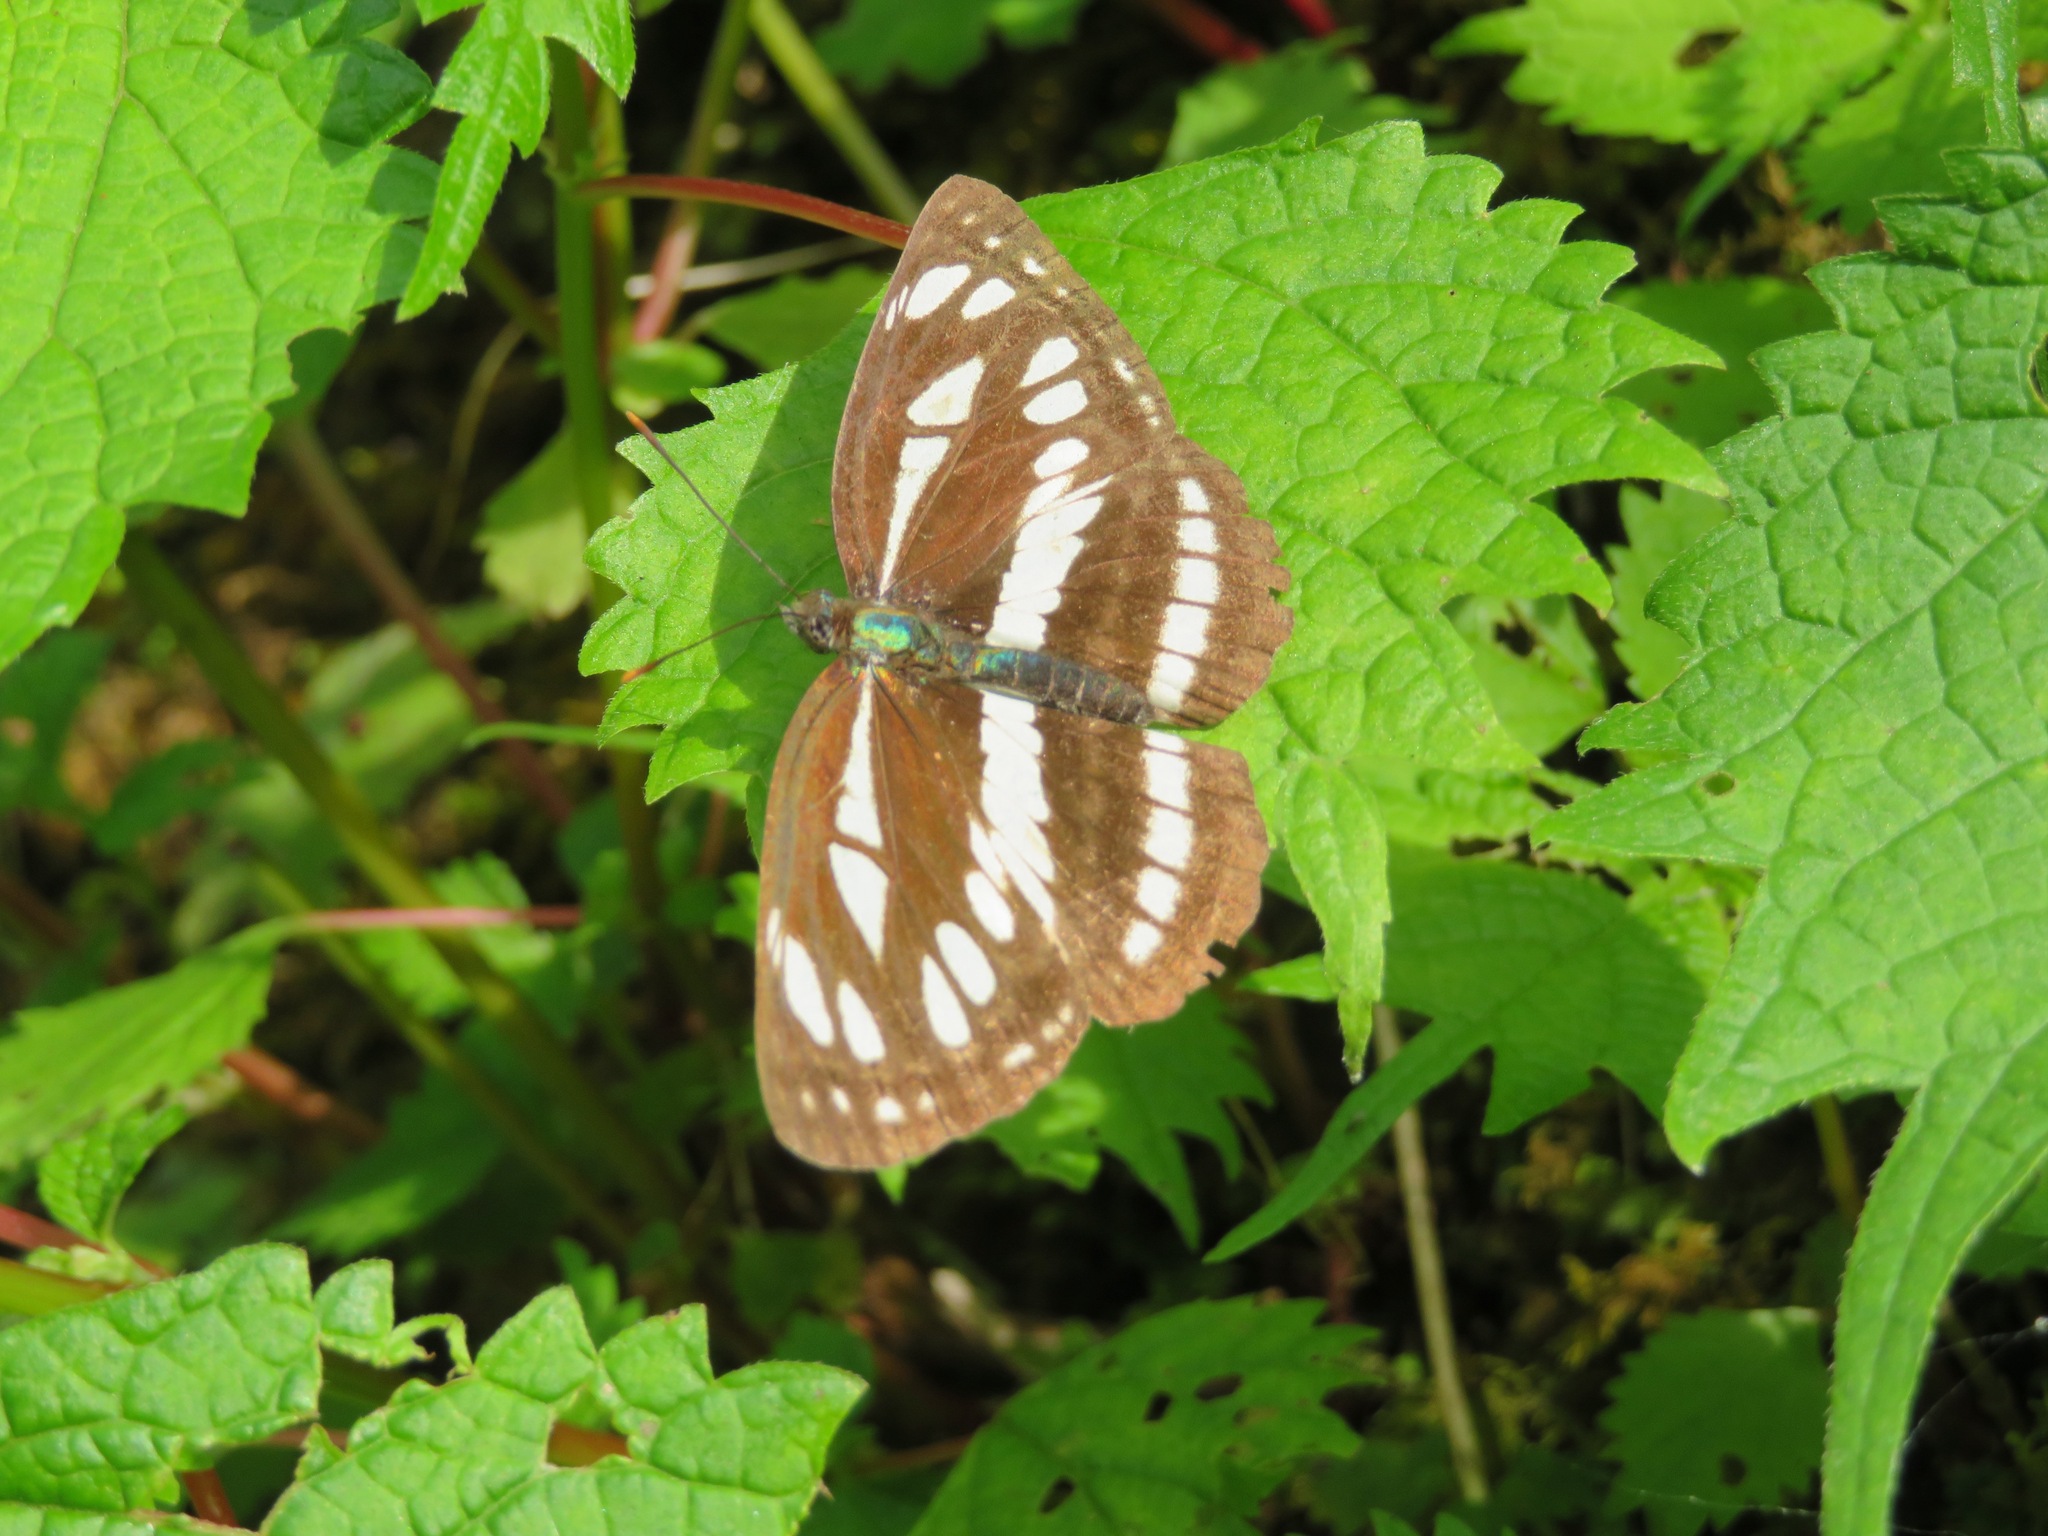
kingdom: Animalia
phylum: Arthropoda
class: Insecta
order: Lepidoptera
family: Nymphalidae
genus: Neptis
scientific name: Neptis sappho
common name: Common glider
